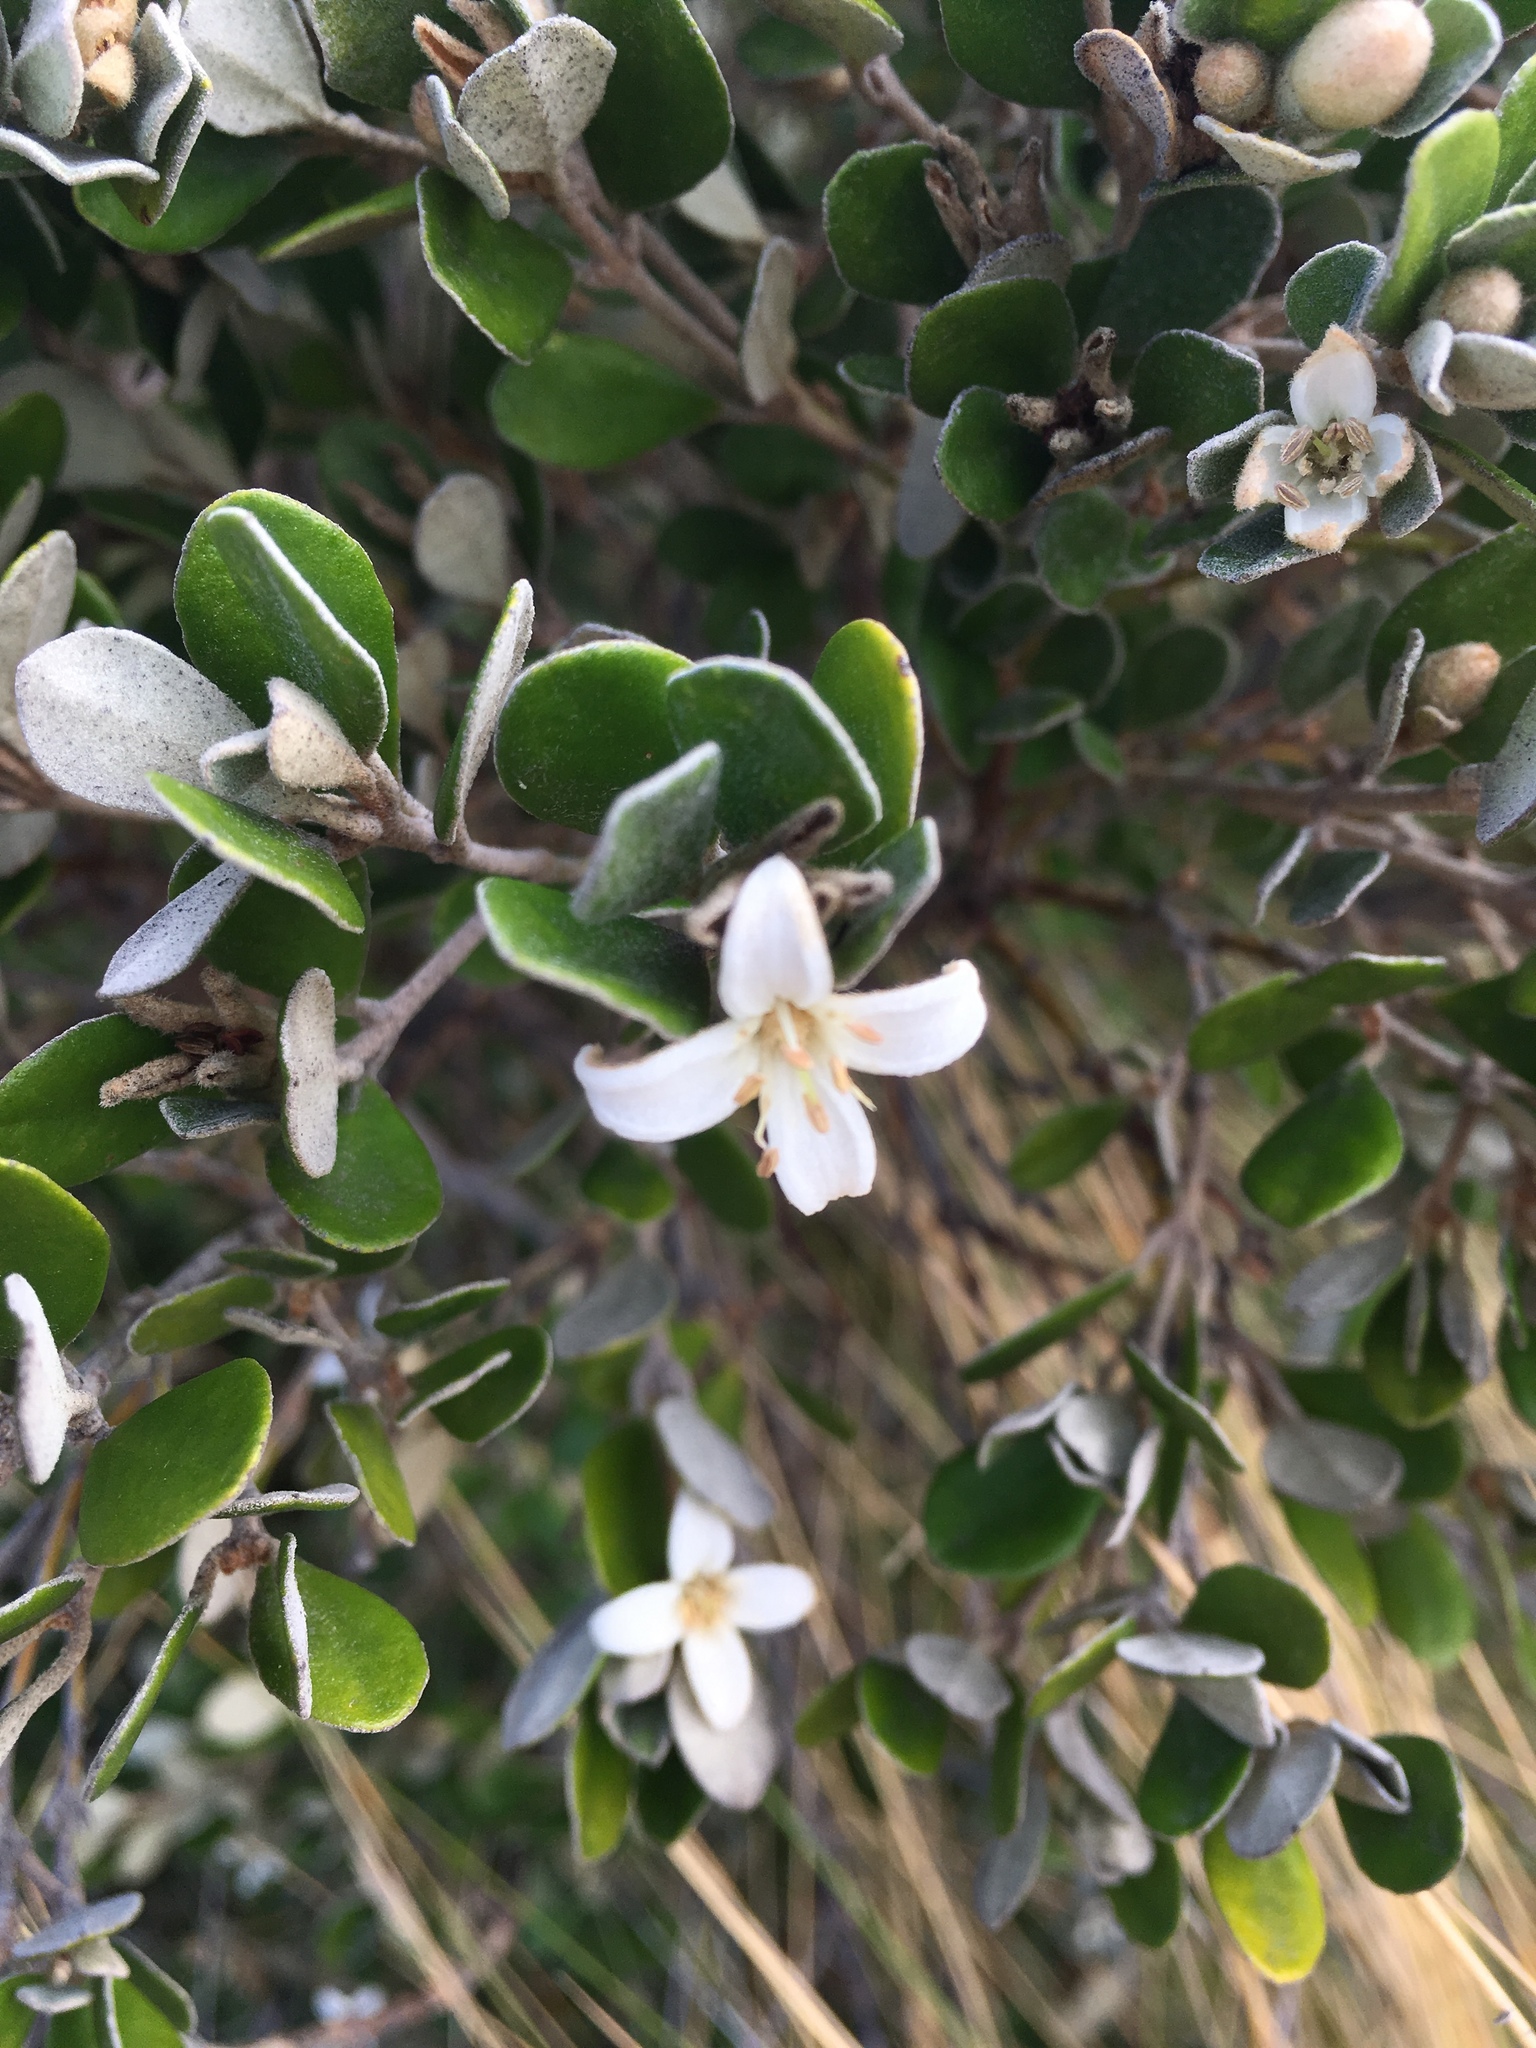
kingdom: Plantae
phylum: Tracheophyta
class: Magnoliopsida
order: Sapindales
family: Rutaceae
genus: Correa
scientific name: Correa alba
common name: White correa
